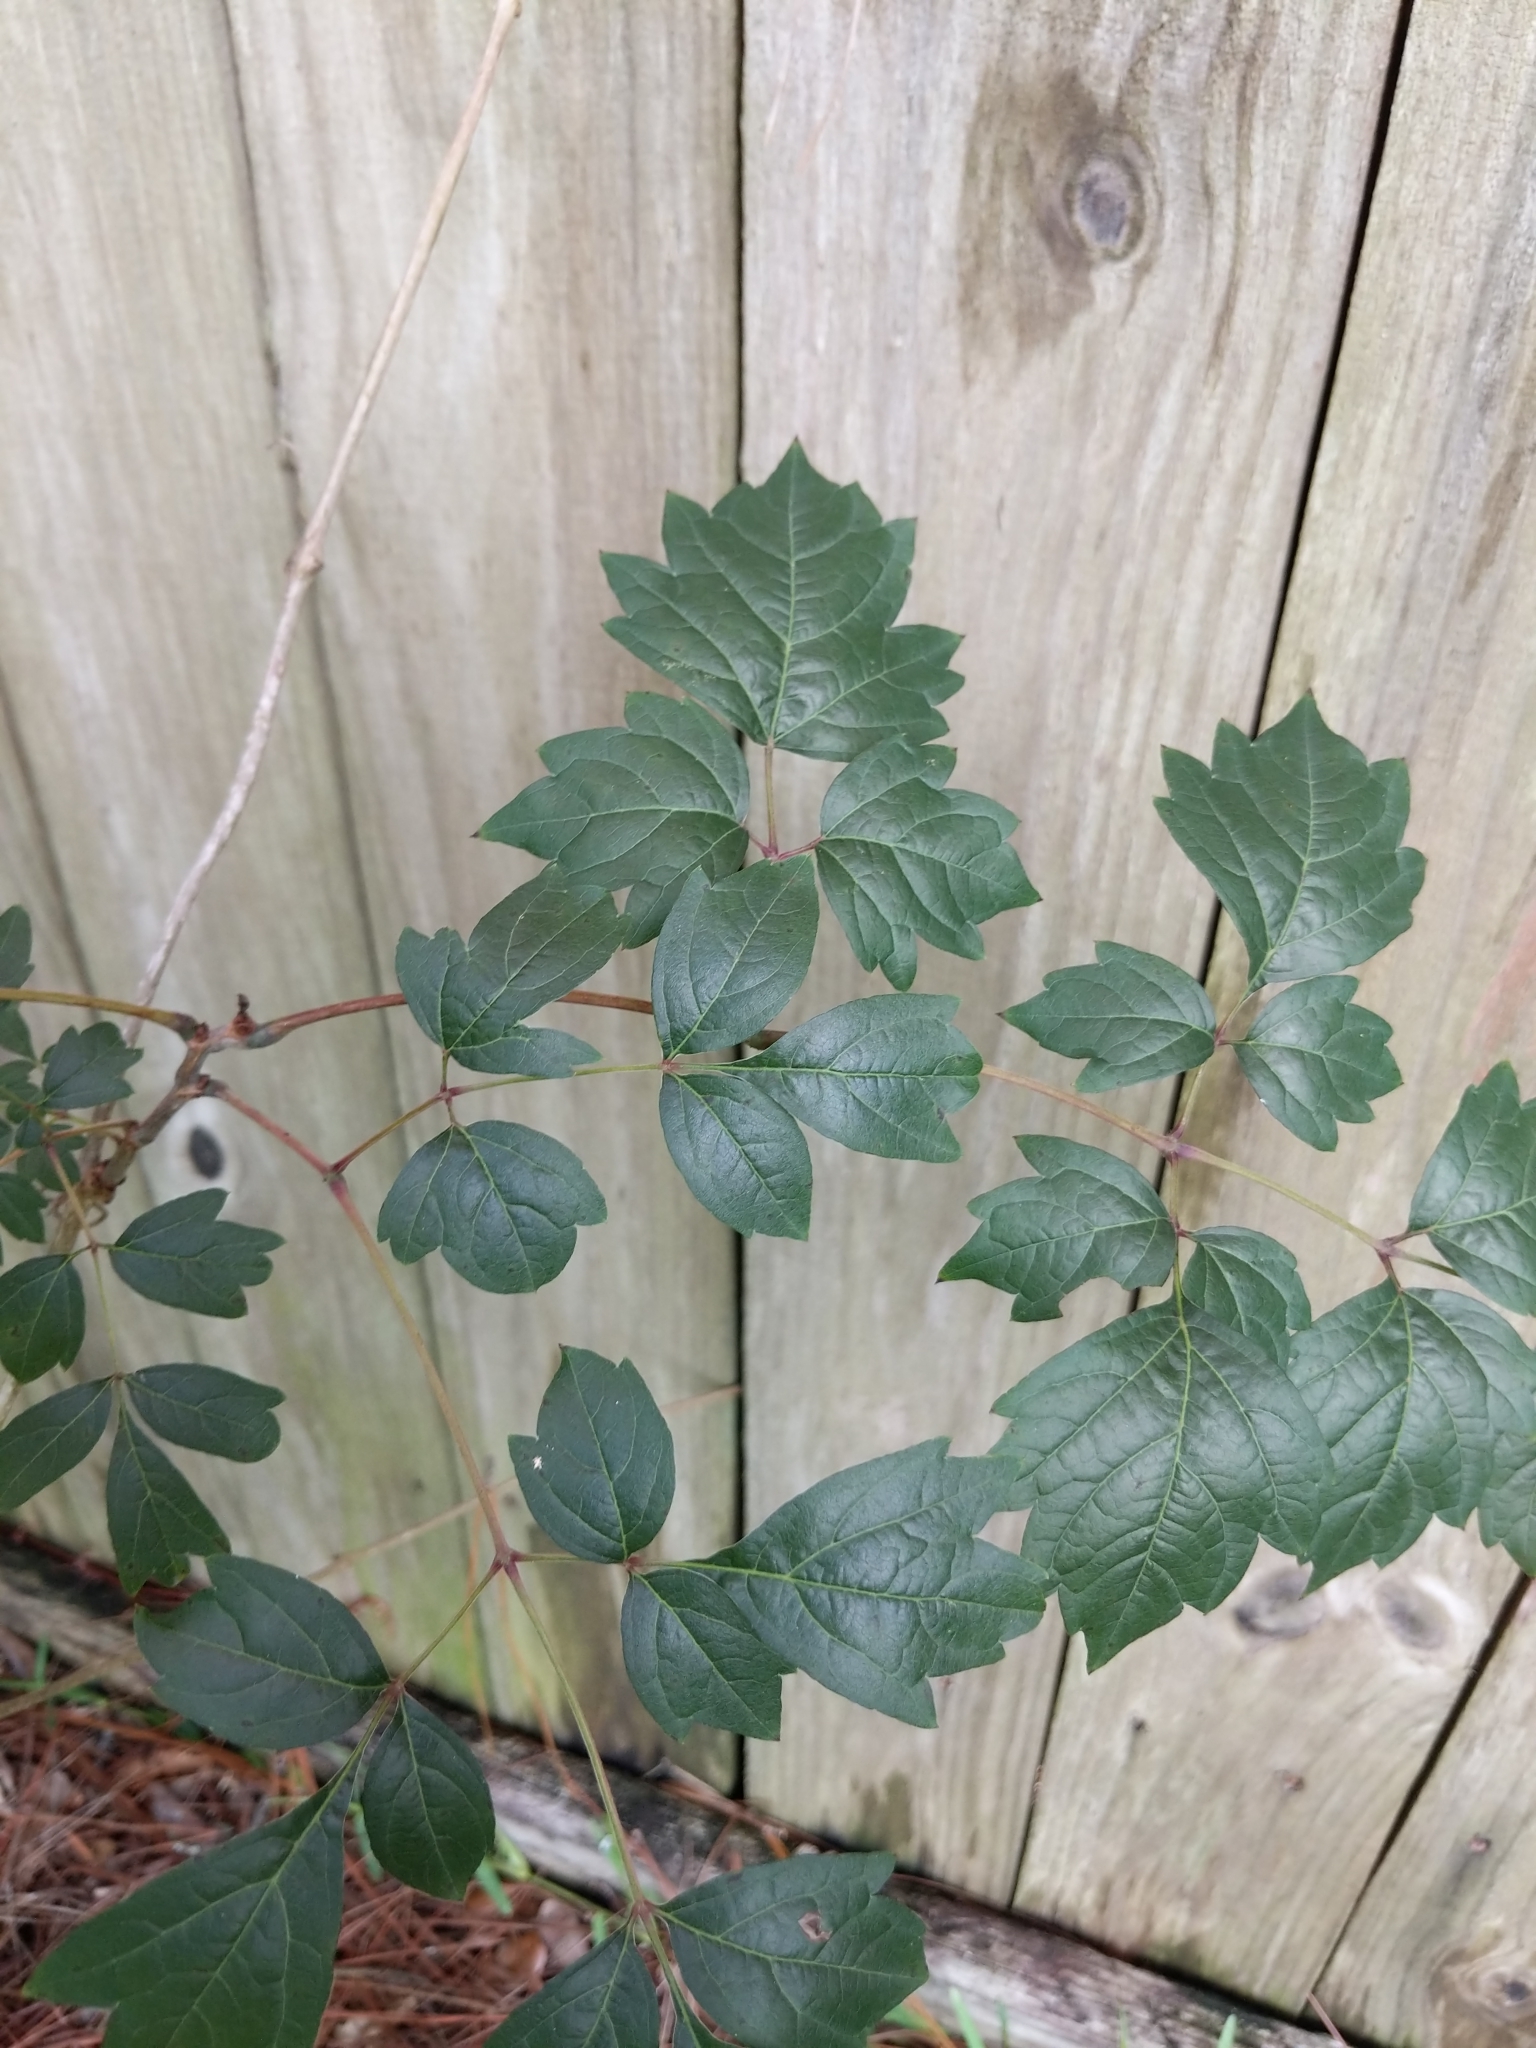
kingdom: Plantae
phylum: Tracheophyta
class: Magnoliopsida
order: Vitales
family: Vitaceae
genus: Nekemias
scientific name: Nekemias arborea
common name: Peppervine
